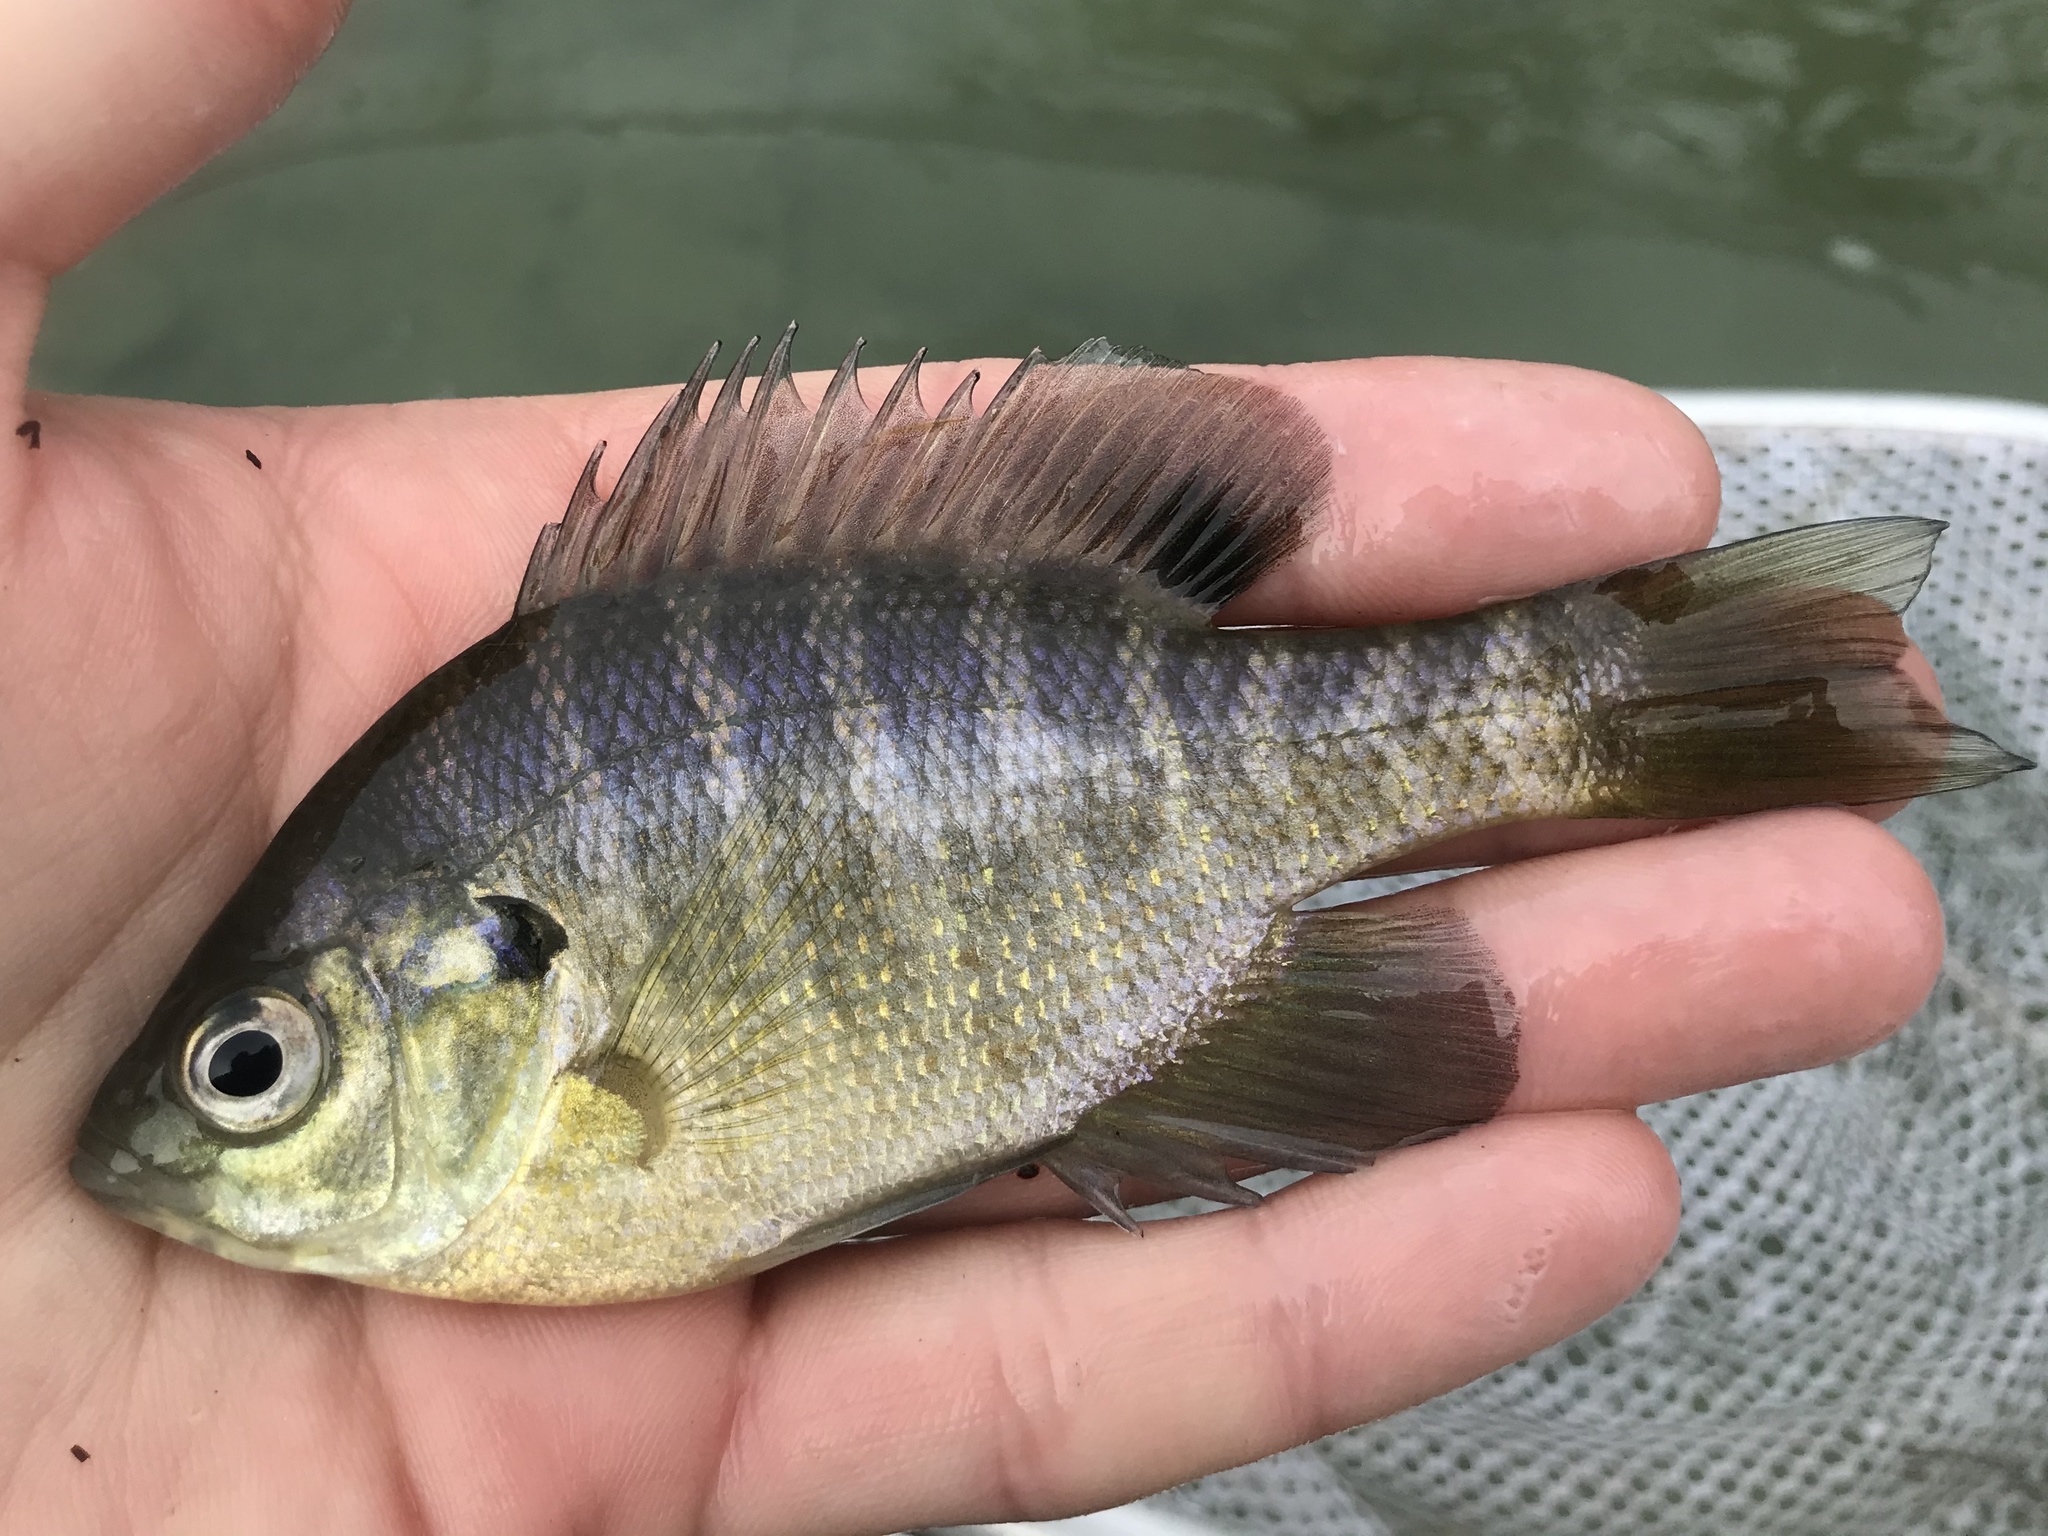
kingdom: Animalia
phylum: Chordata
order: Perciformes
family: Centrarchidae
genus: Lepomis
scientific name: Lepomis macrochirus
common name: Bluegill
